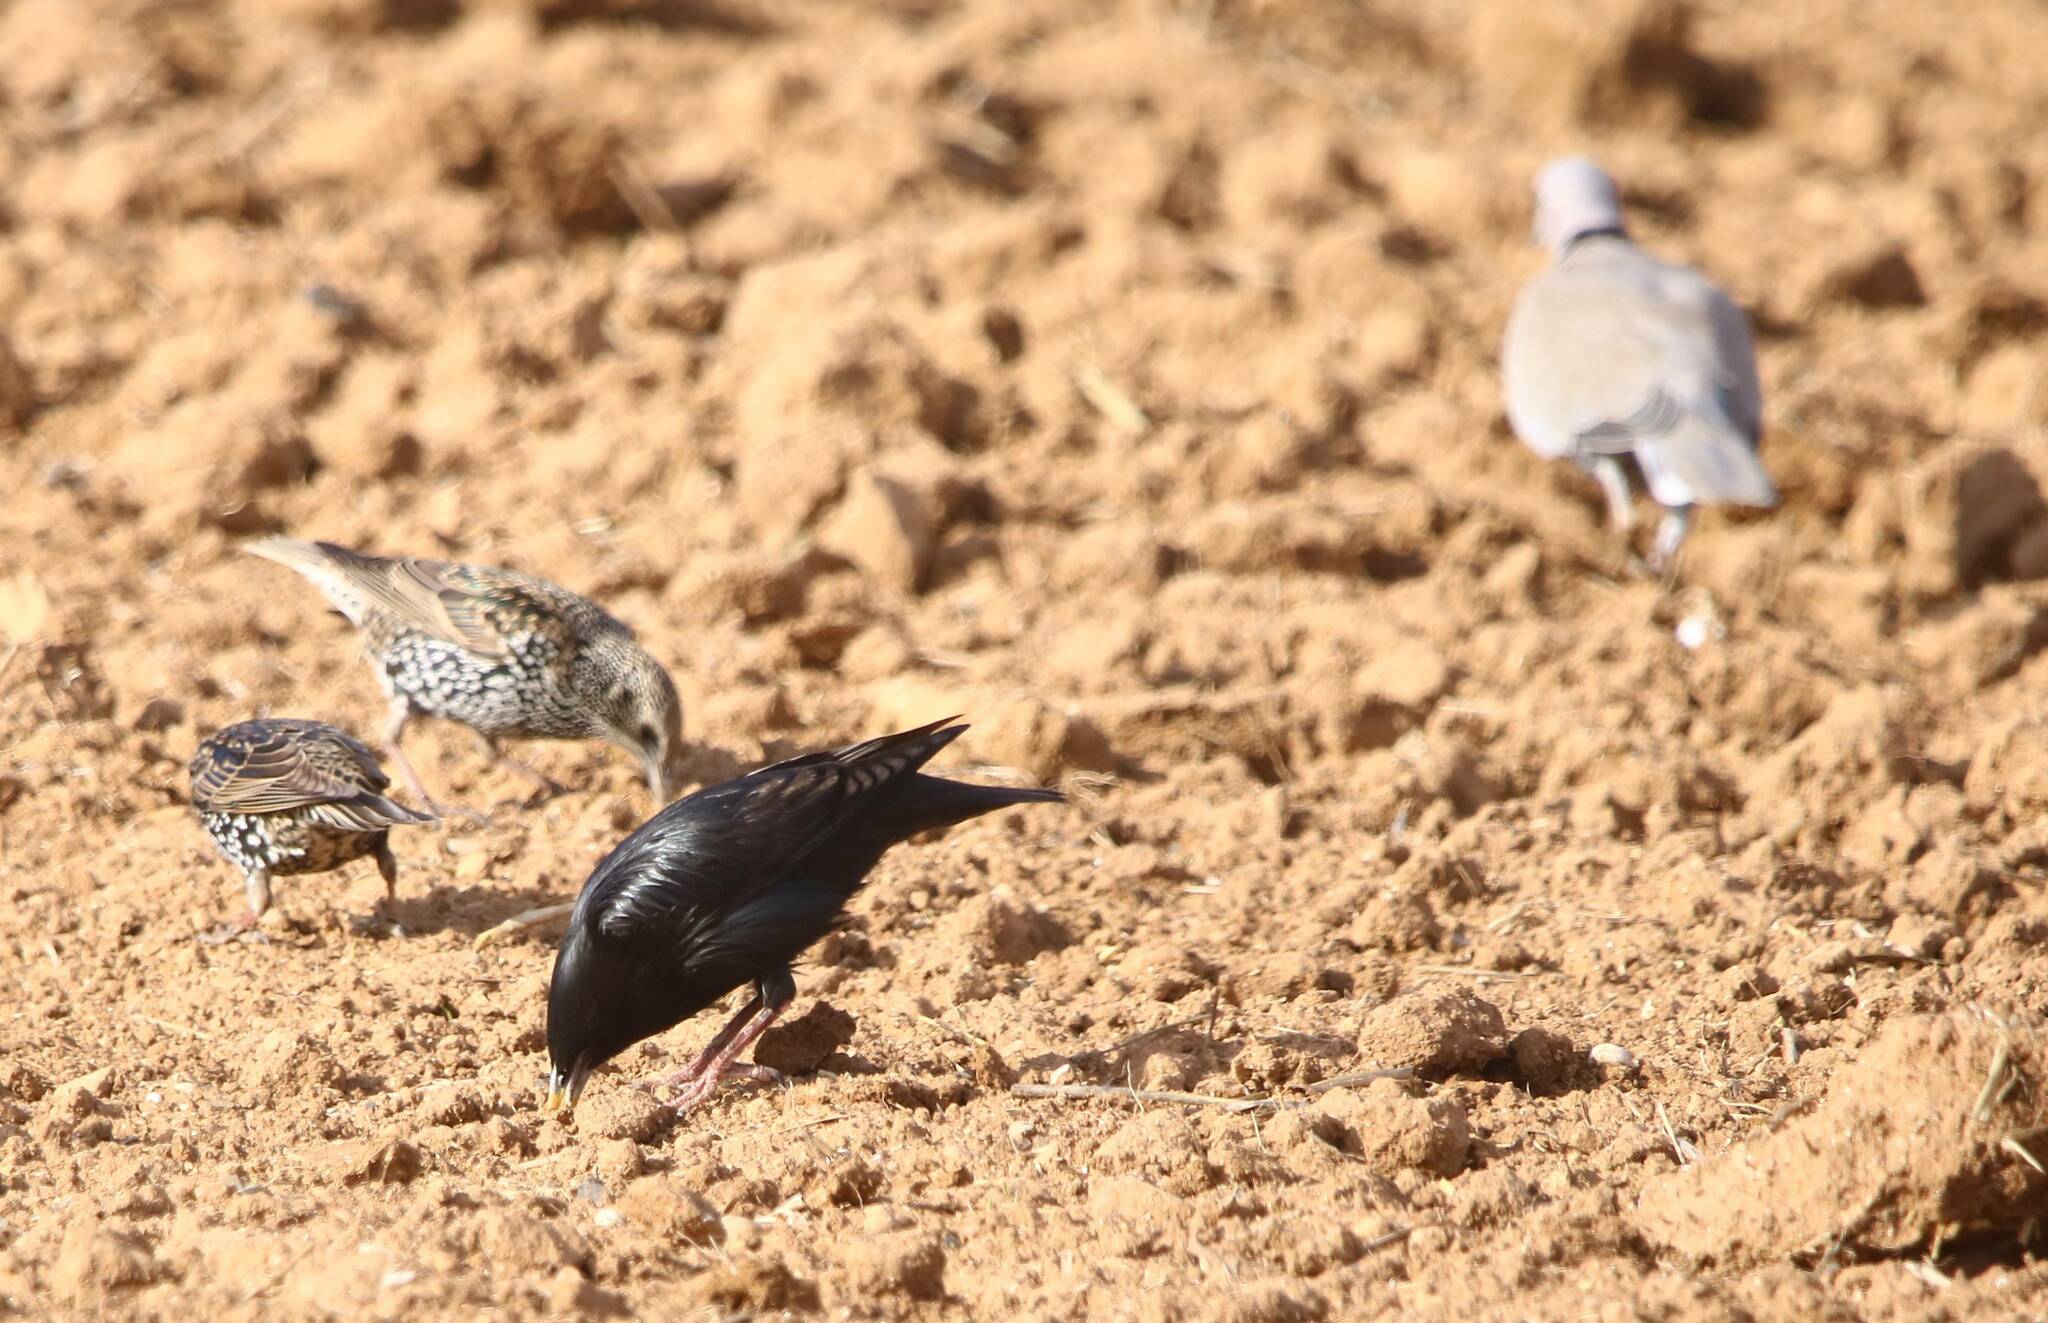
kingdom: Animalia
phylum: Chordata
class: Aves
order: Passeriformes
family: Sturnidae
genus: Sturnus
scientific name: Sturnus unicolor
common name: Spotless starling
